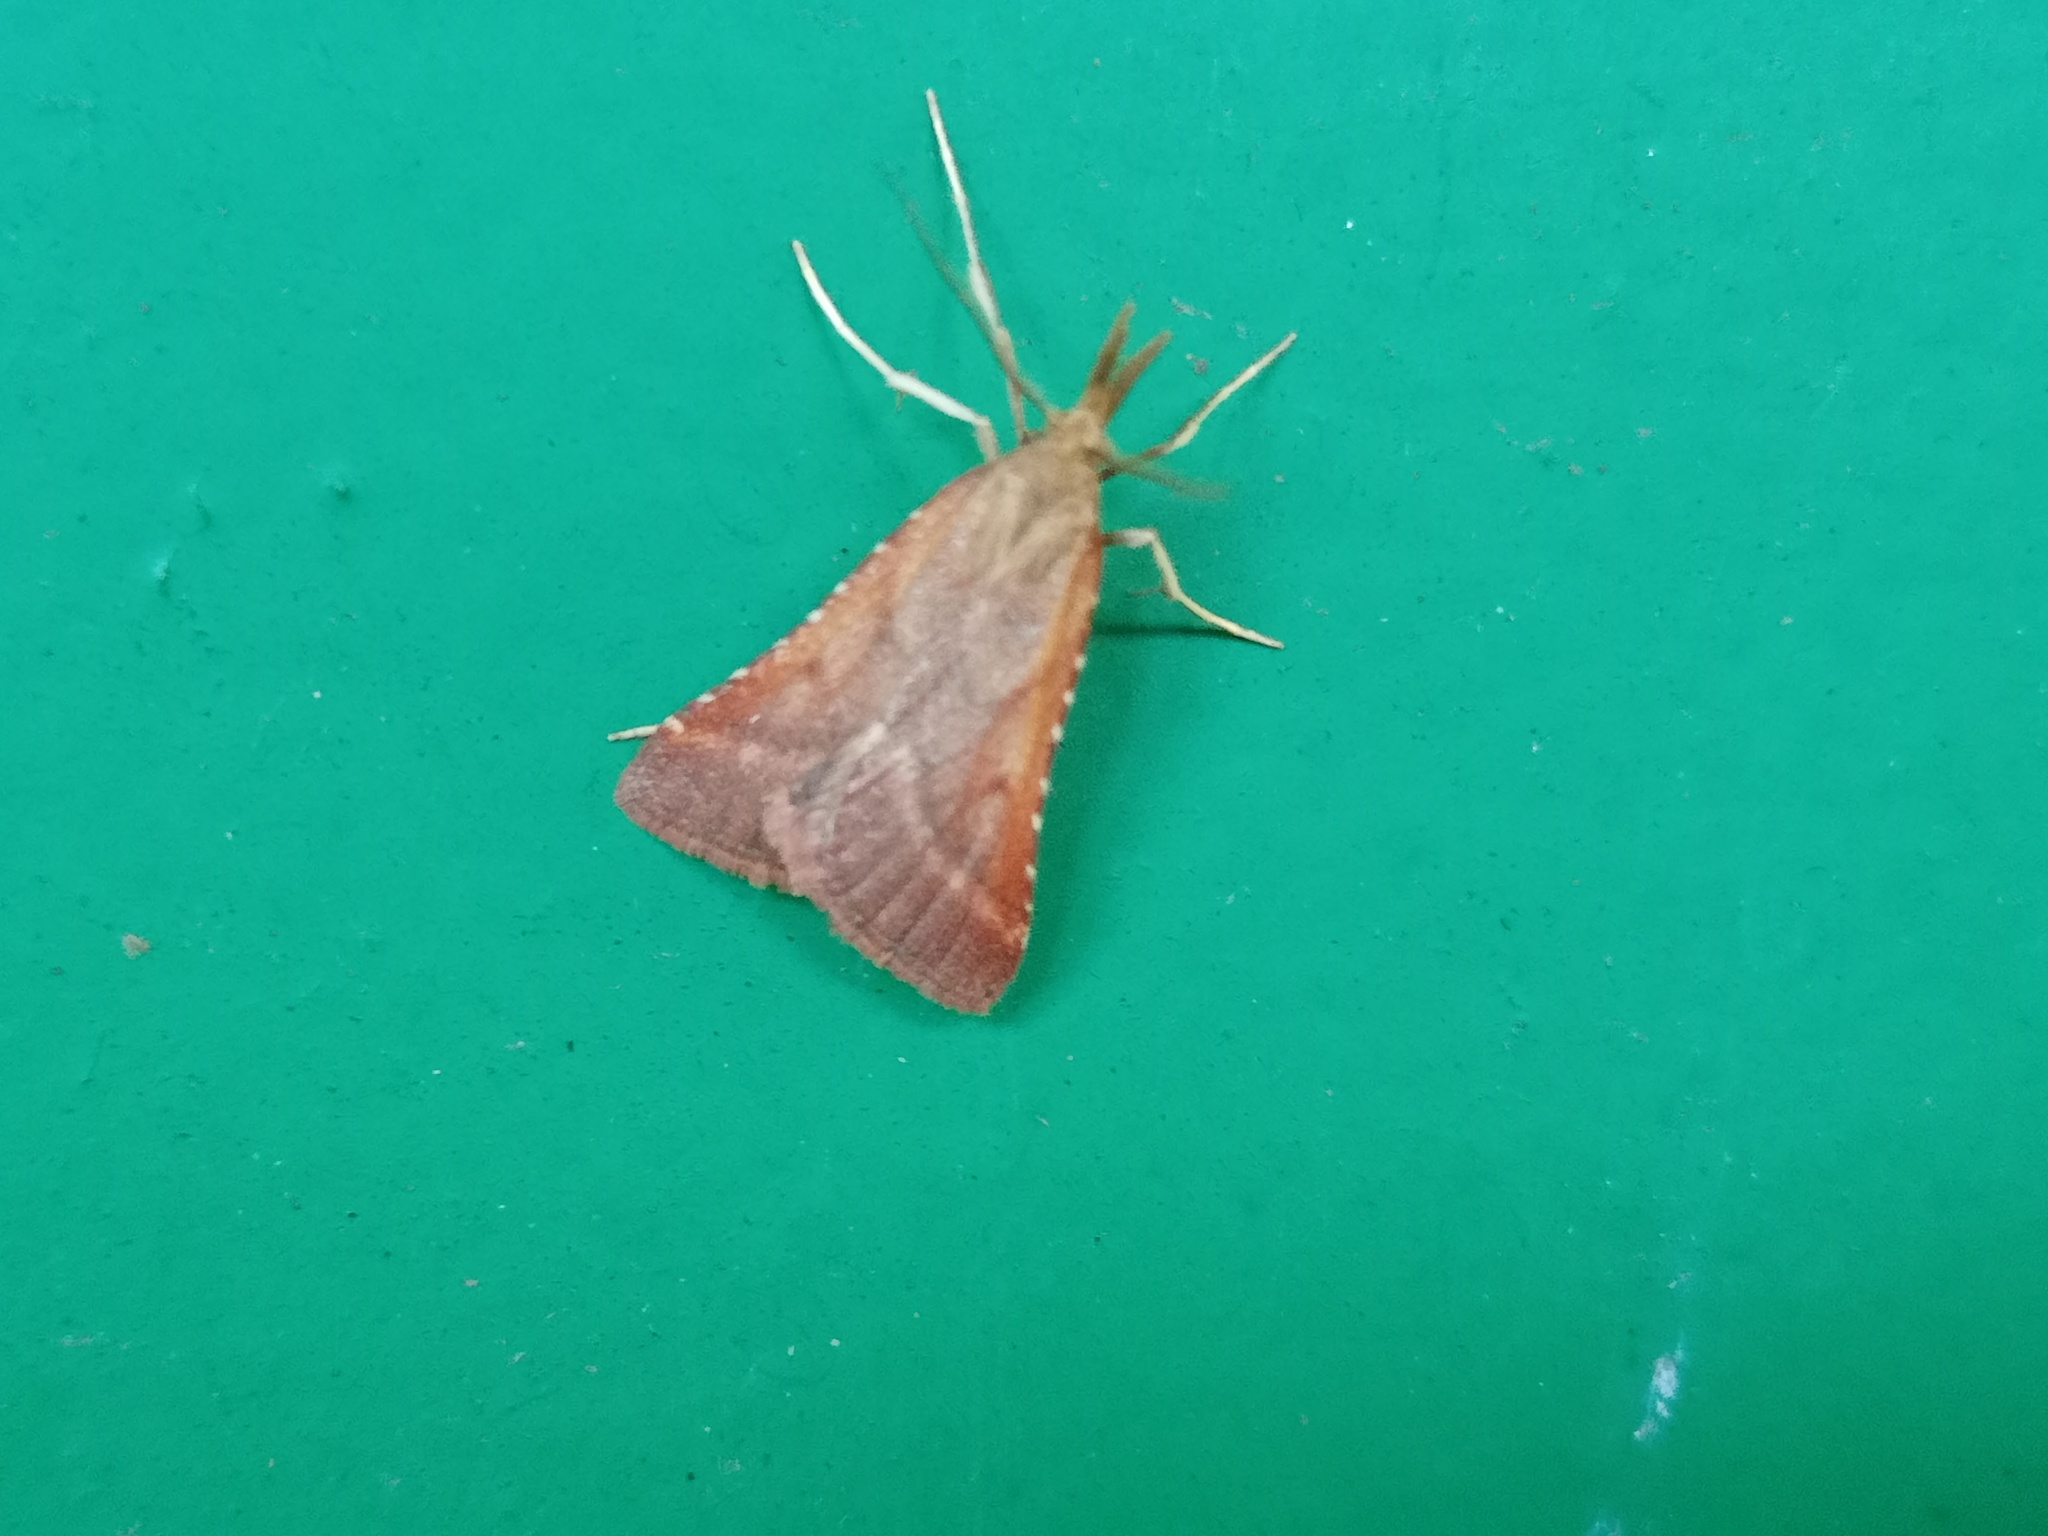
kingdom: Animalia
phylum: Arthropoda
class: Insecta
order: Lepidoptera
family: Pyralidae
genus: Synaphe
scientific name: Synaphe punctalis
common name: Long-legged tabby
